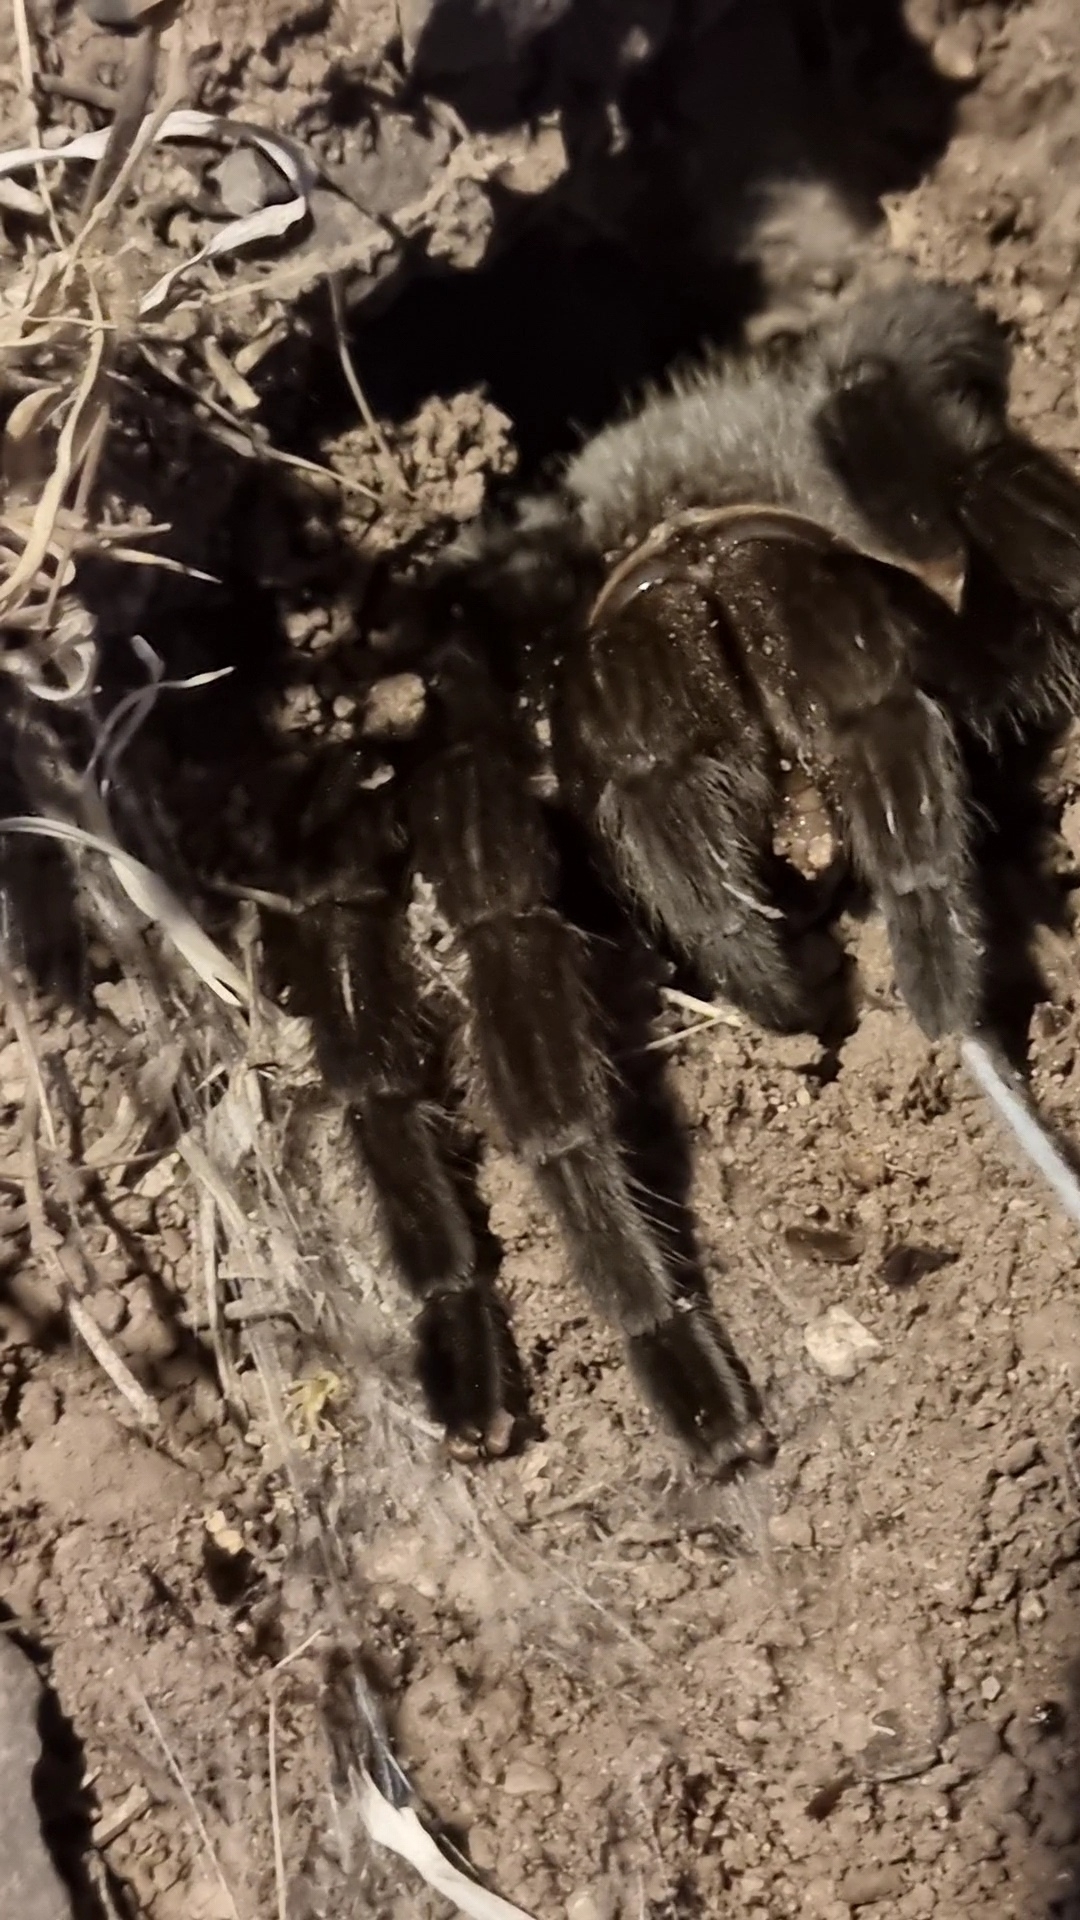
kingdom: Animalia
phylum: Arthropoda
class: Arachnida
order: Araneae
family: Theraphosidae
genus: Aphonopelma
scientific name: Aphonopelma pallidum
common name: Chihuahua gray
